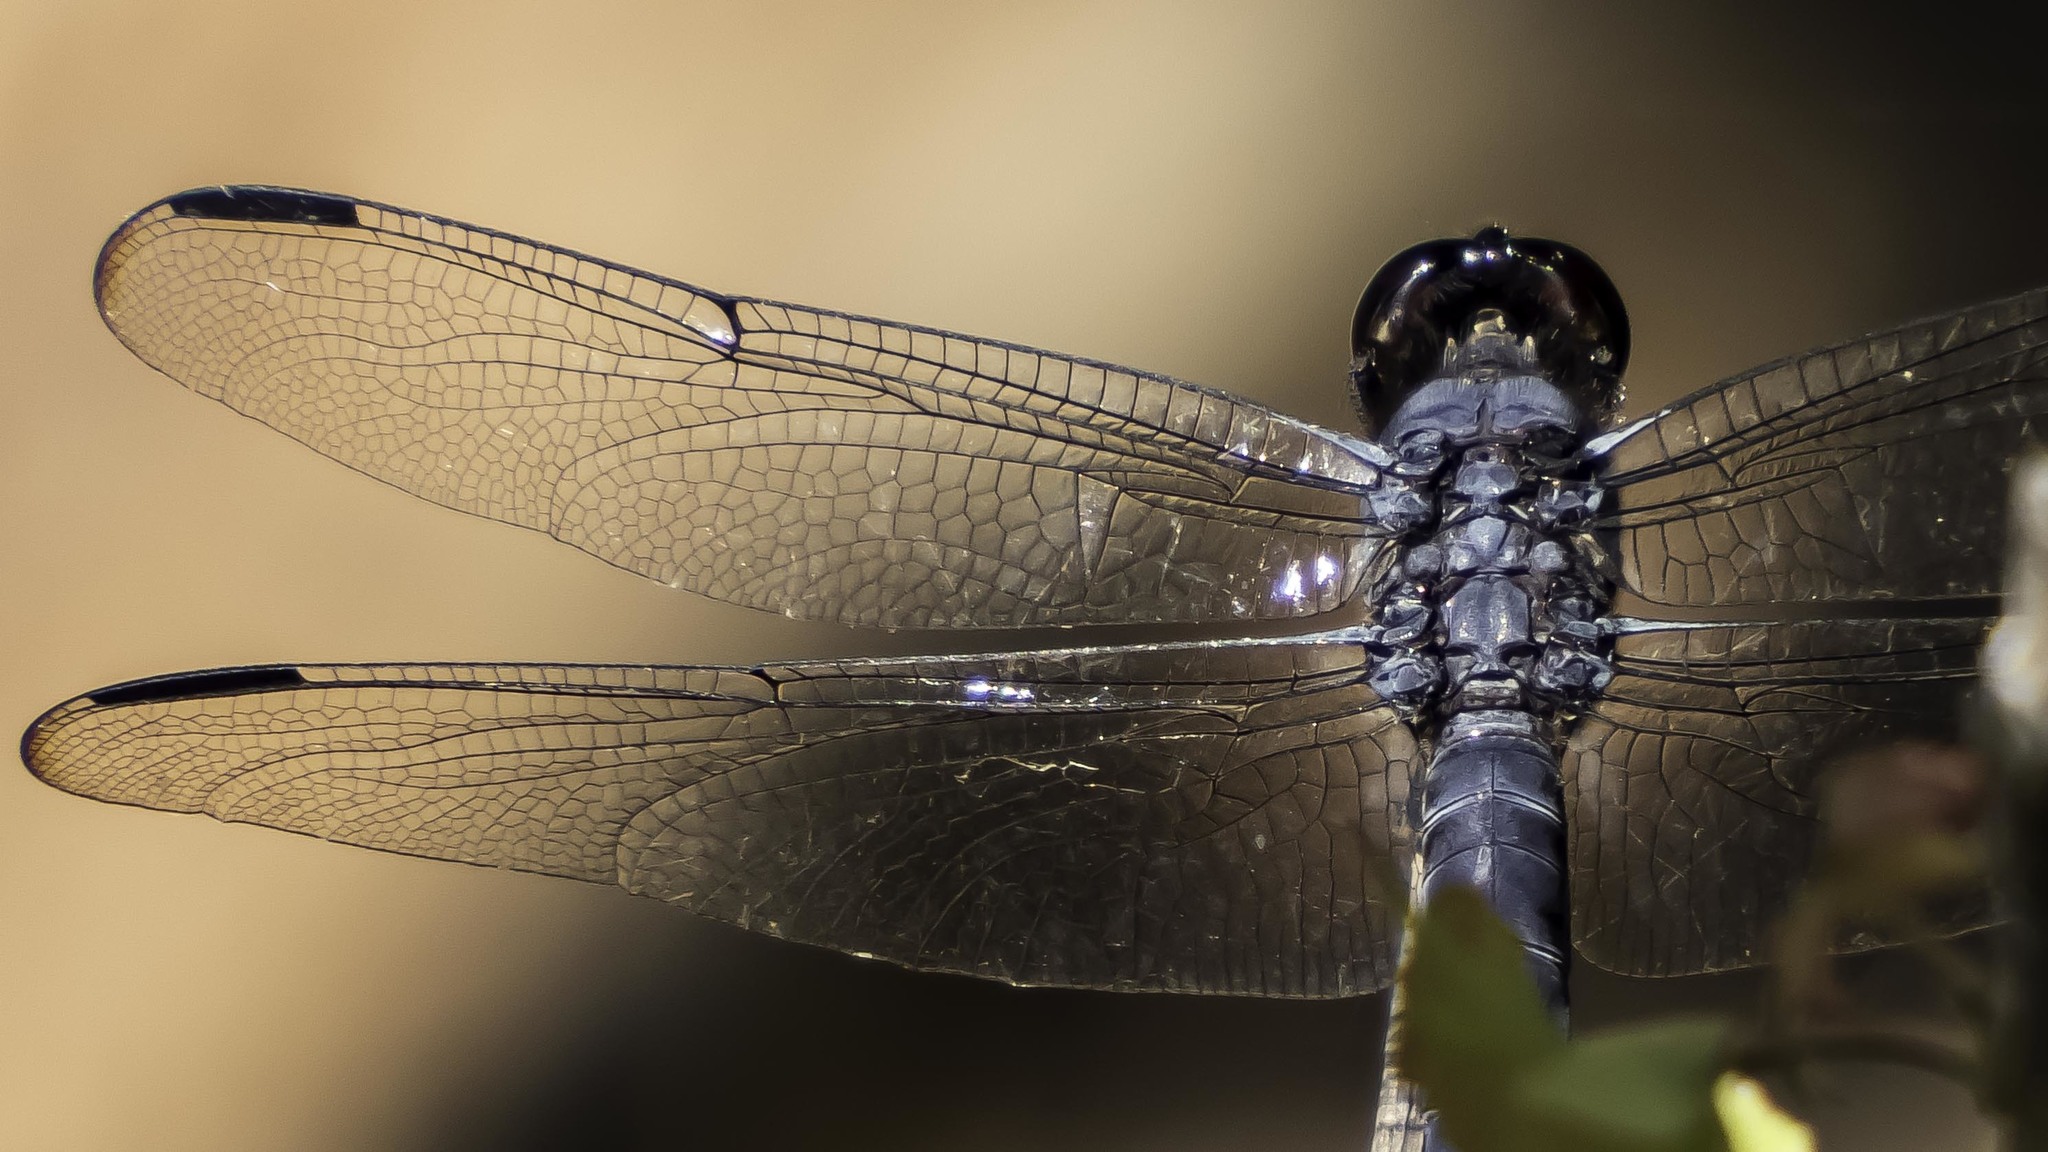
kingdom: Animalia
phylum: Arthropoda
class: Insecta
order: Odonata
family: Libellulidae
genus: Libellula
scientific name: Libellula incesta
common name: Slaty skimmer
